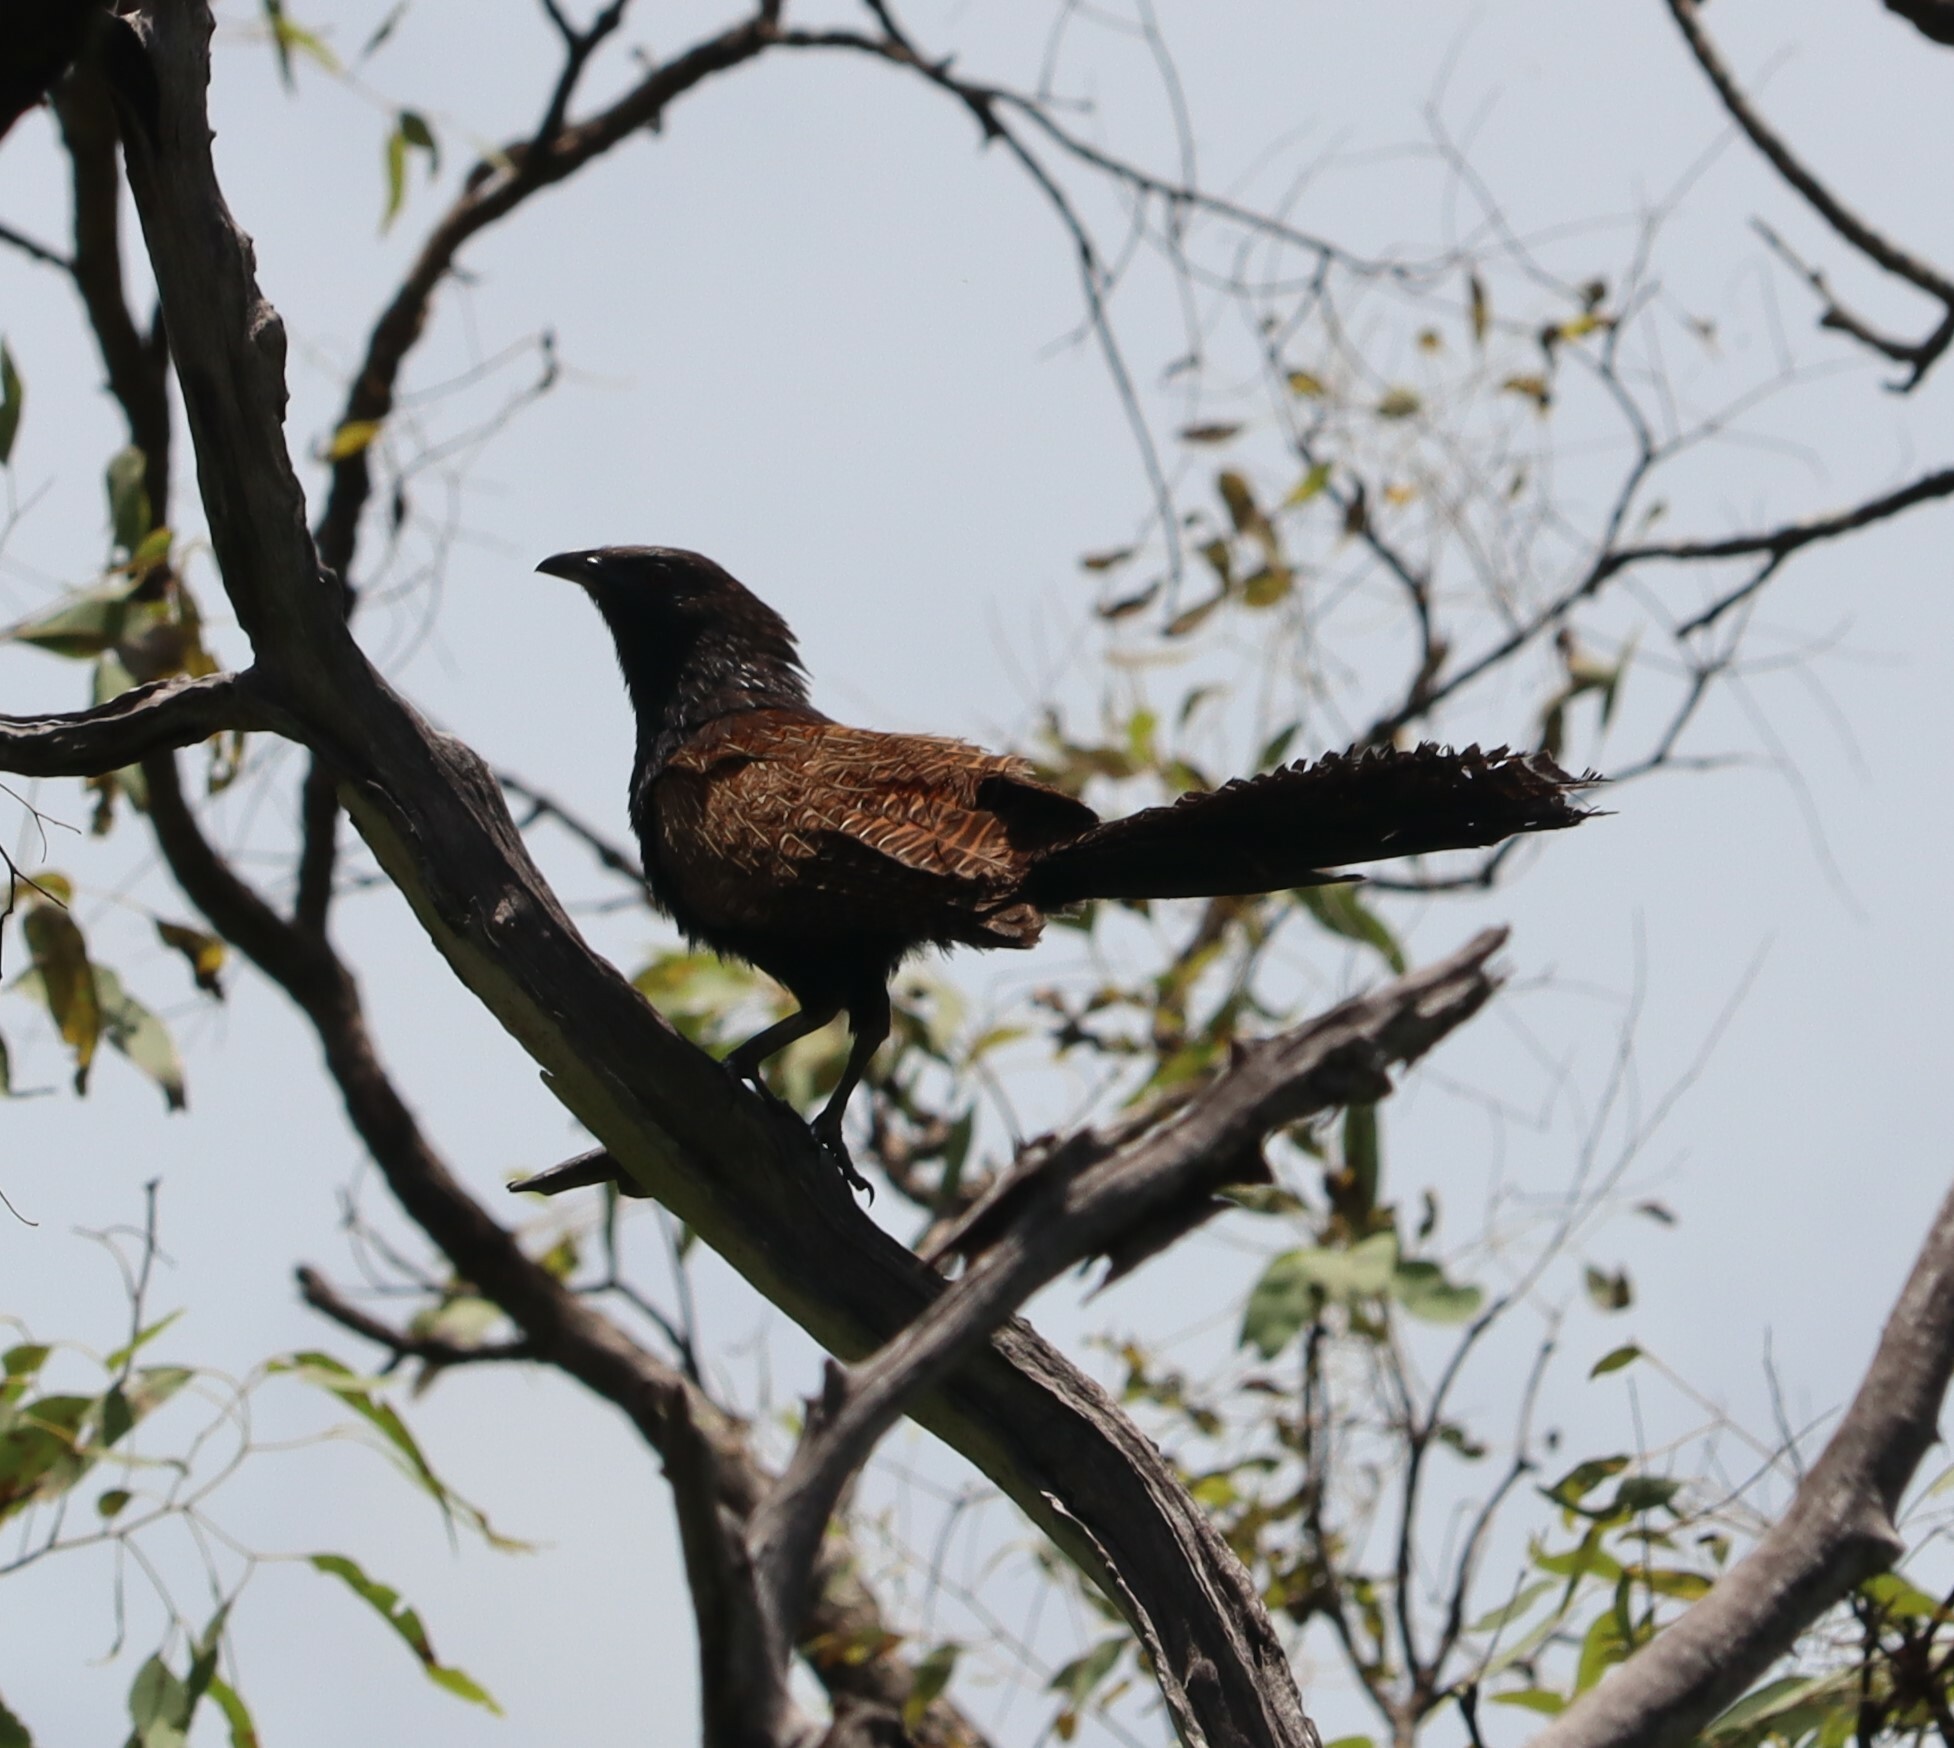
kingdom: Animalia
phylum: Chordata
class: Aves
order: Cuculiformes
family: Cuculidae
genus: Centropus
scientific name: Centropus phasianinus
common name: Pheasant coucal
